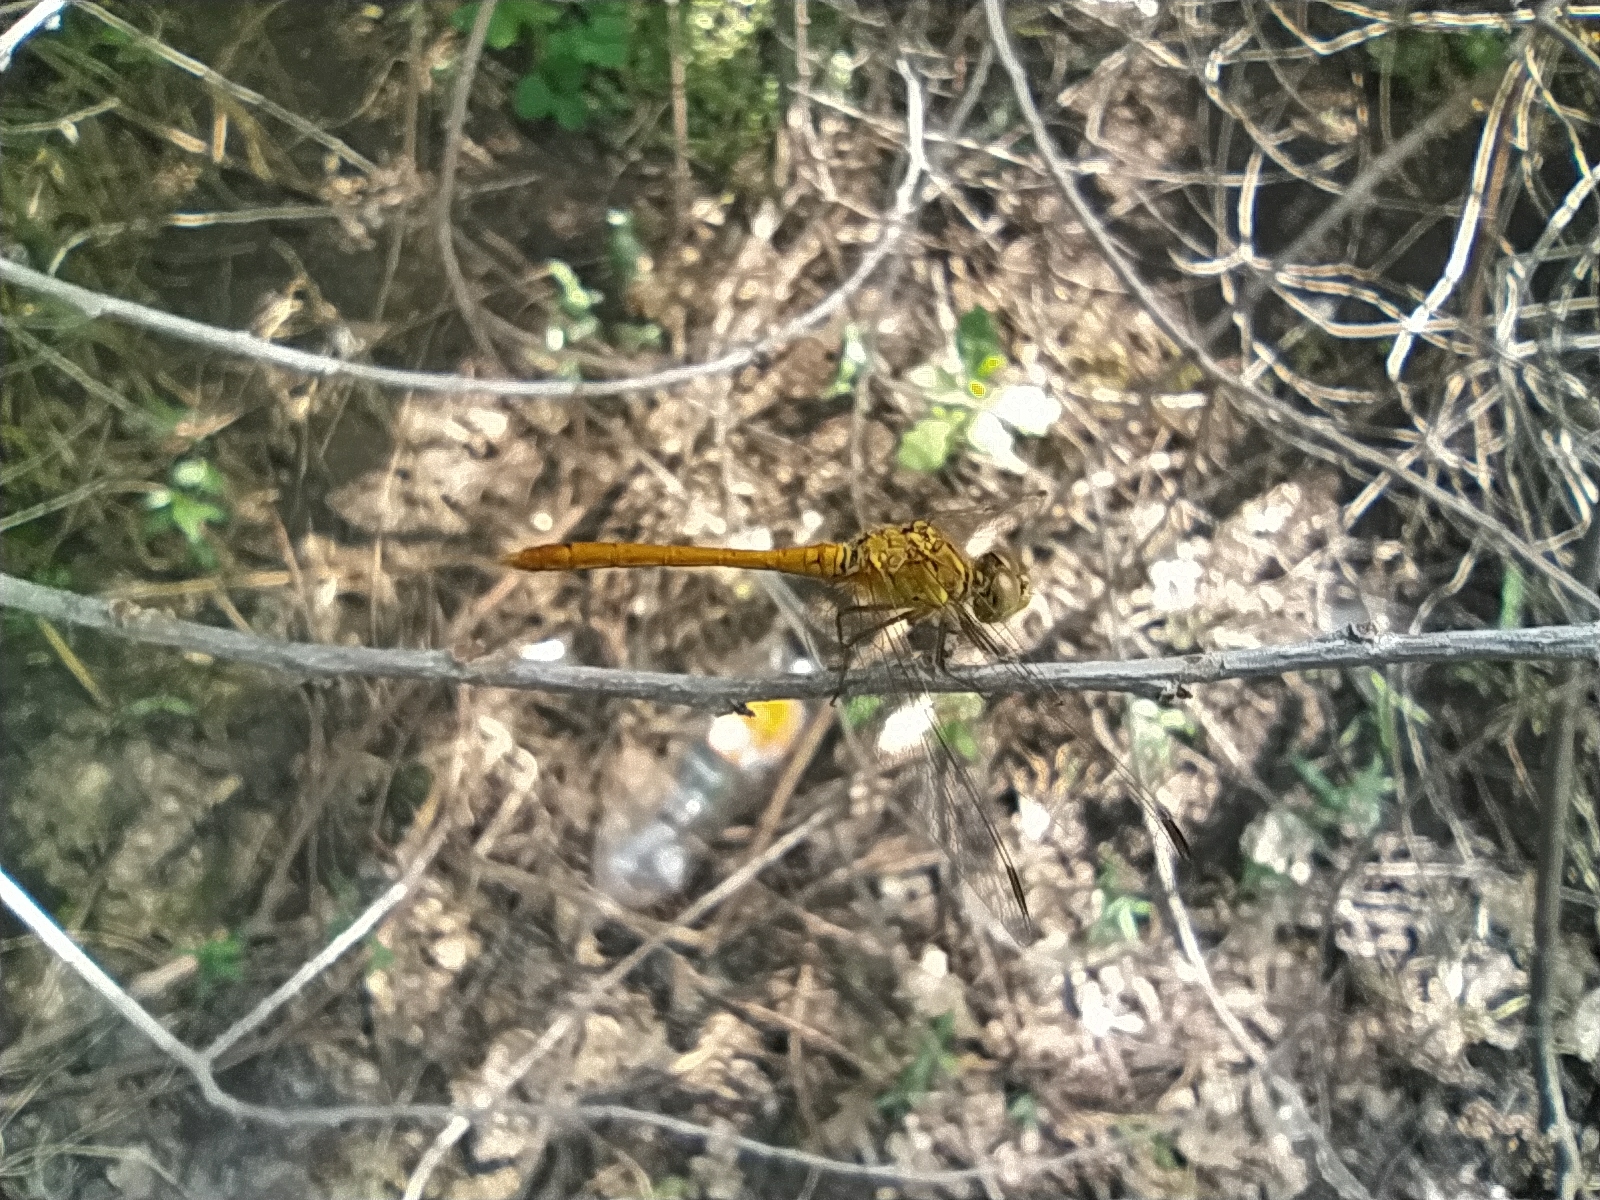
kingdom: Animalia
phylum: Arthropoda
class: Insecta
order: Odonata
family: Libellulidae
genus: Sympetrum
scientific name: Sympetrum meridionale
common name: Southern darter
